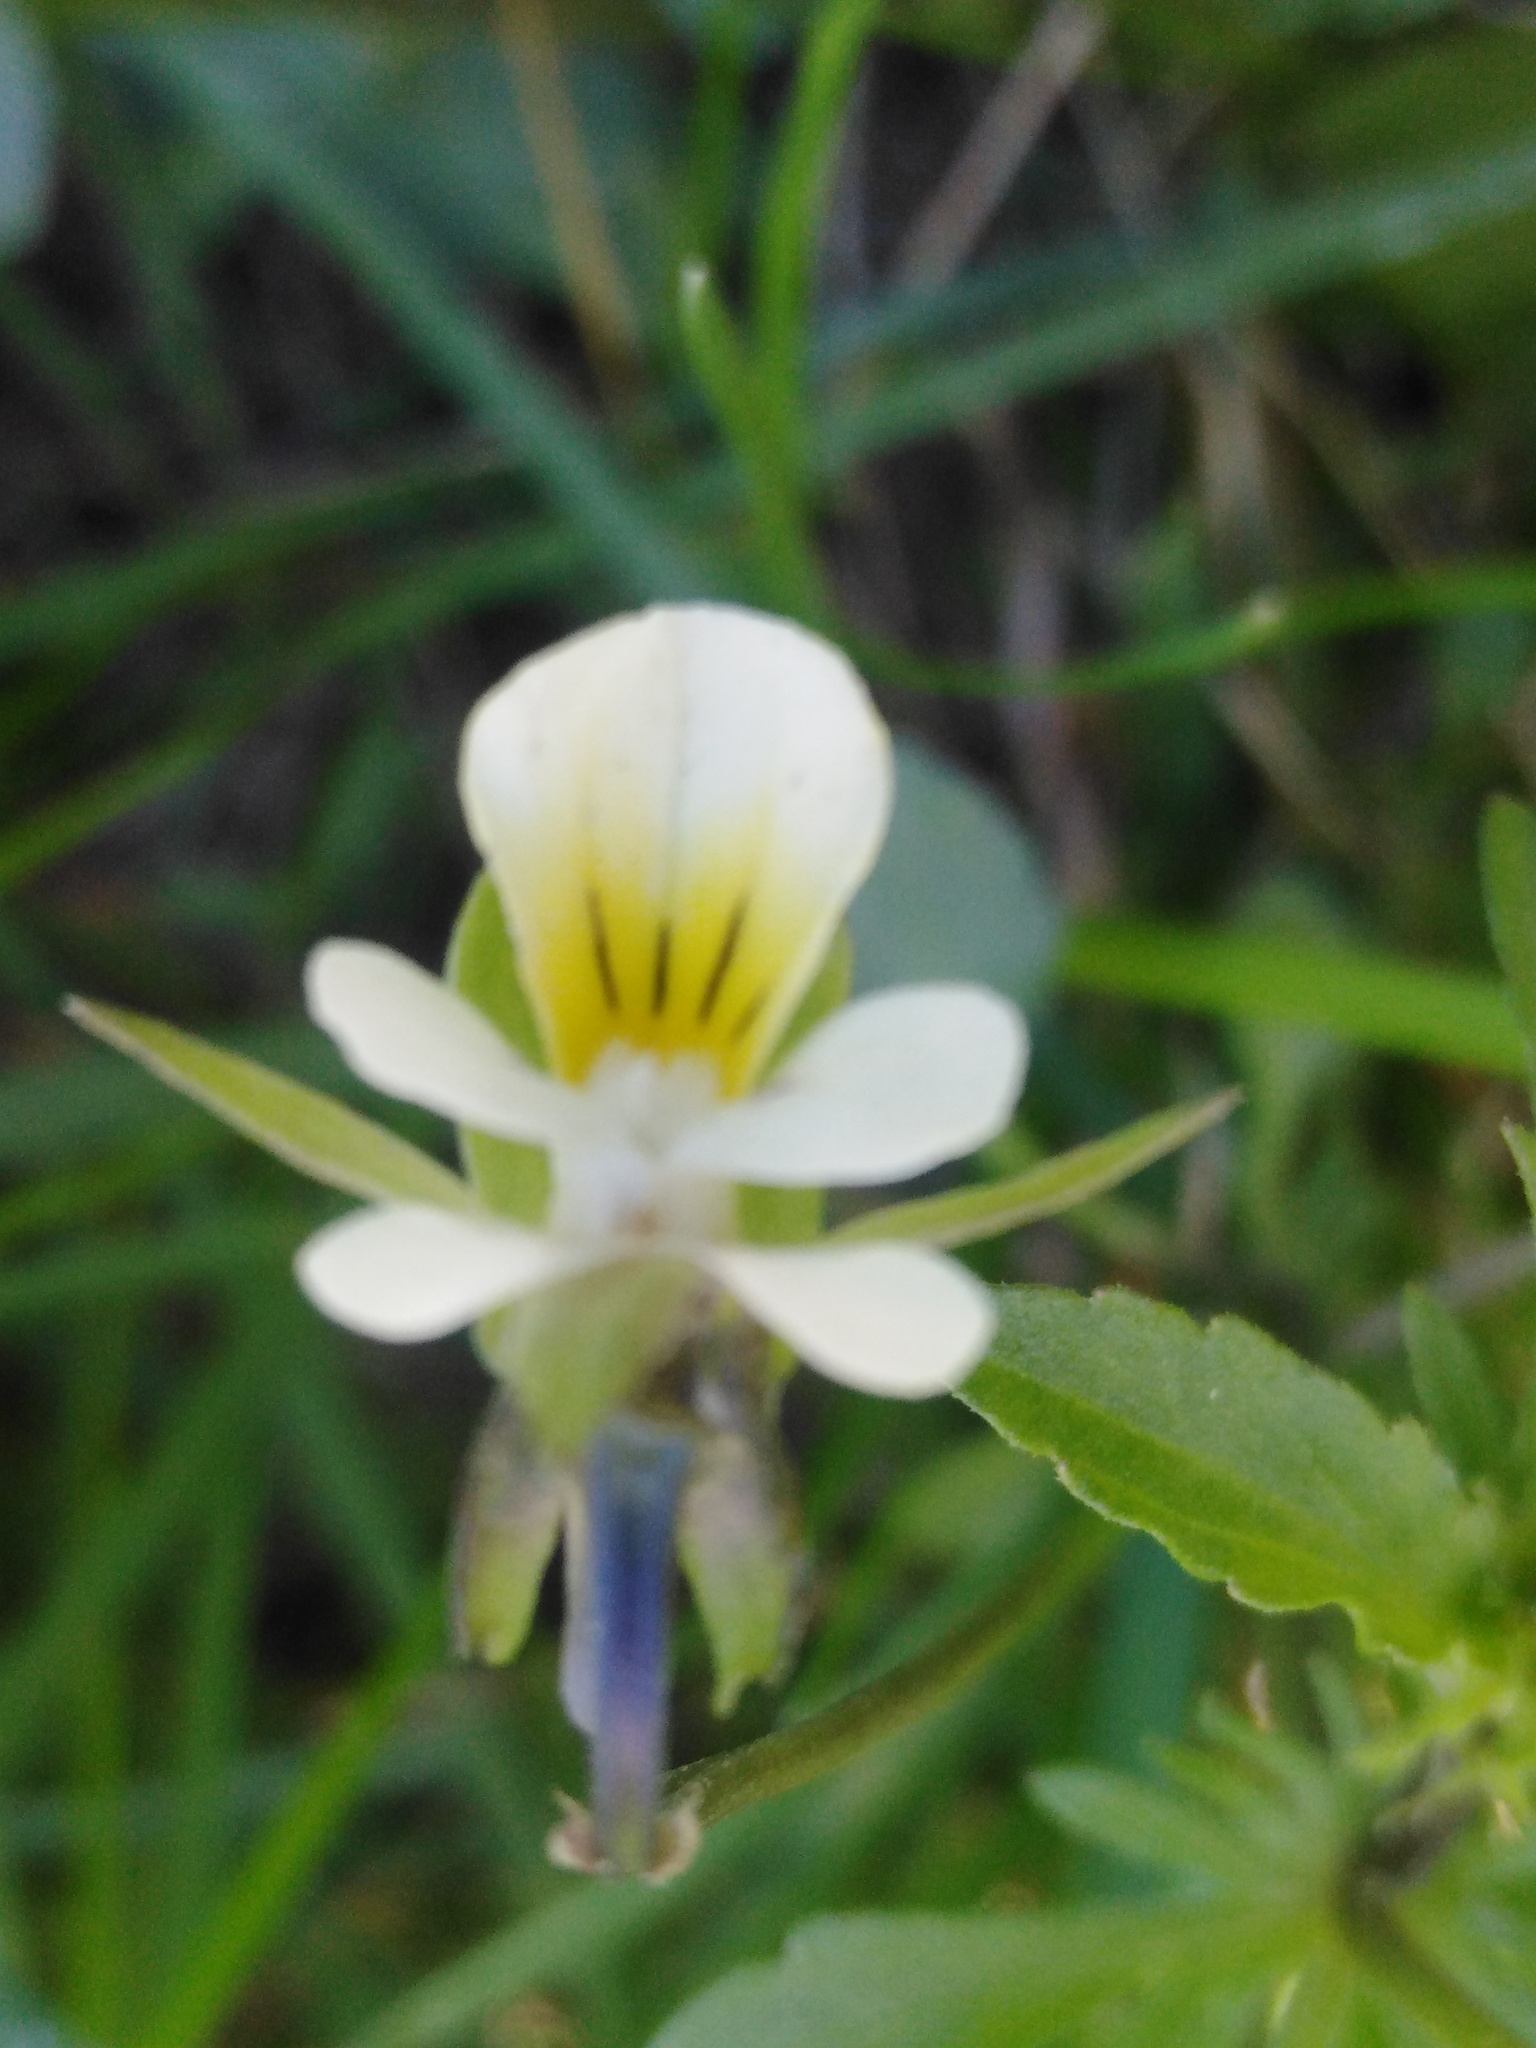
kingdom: Plantae
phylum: Tracheophyta
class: Magnoliopsida
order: Malpighiales
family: Violaceae
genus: Viola
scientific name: Viola arvensis
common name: Field pansy
